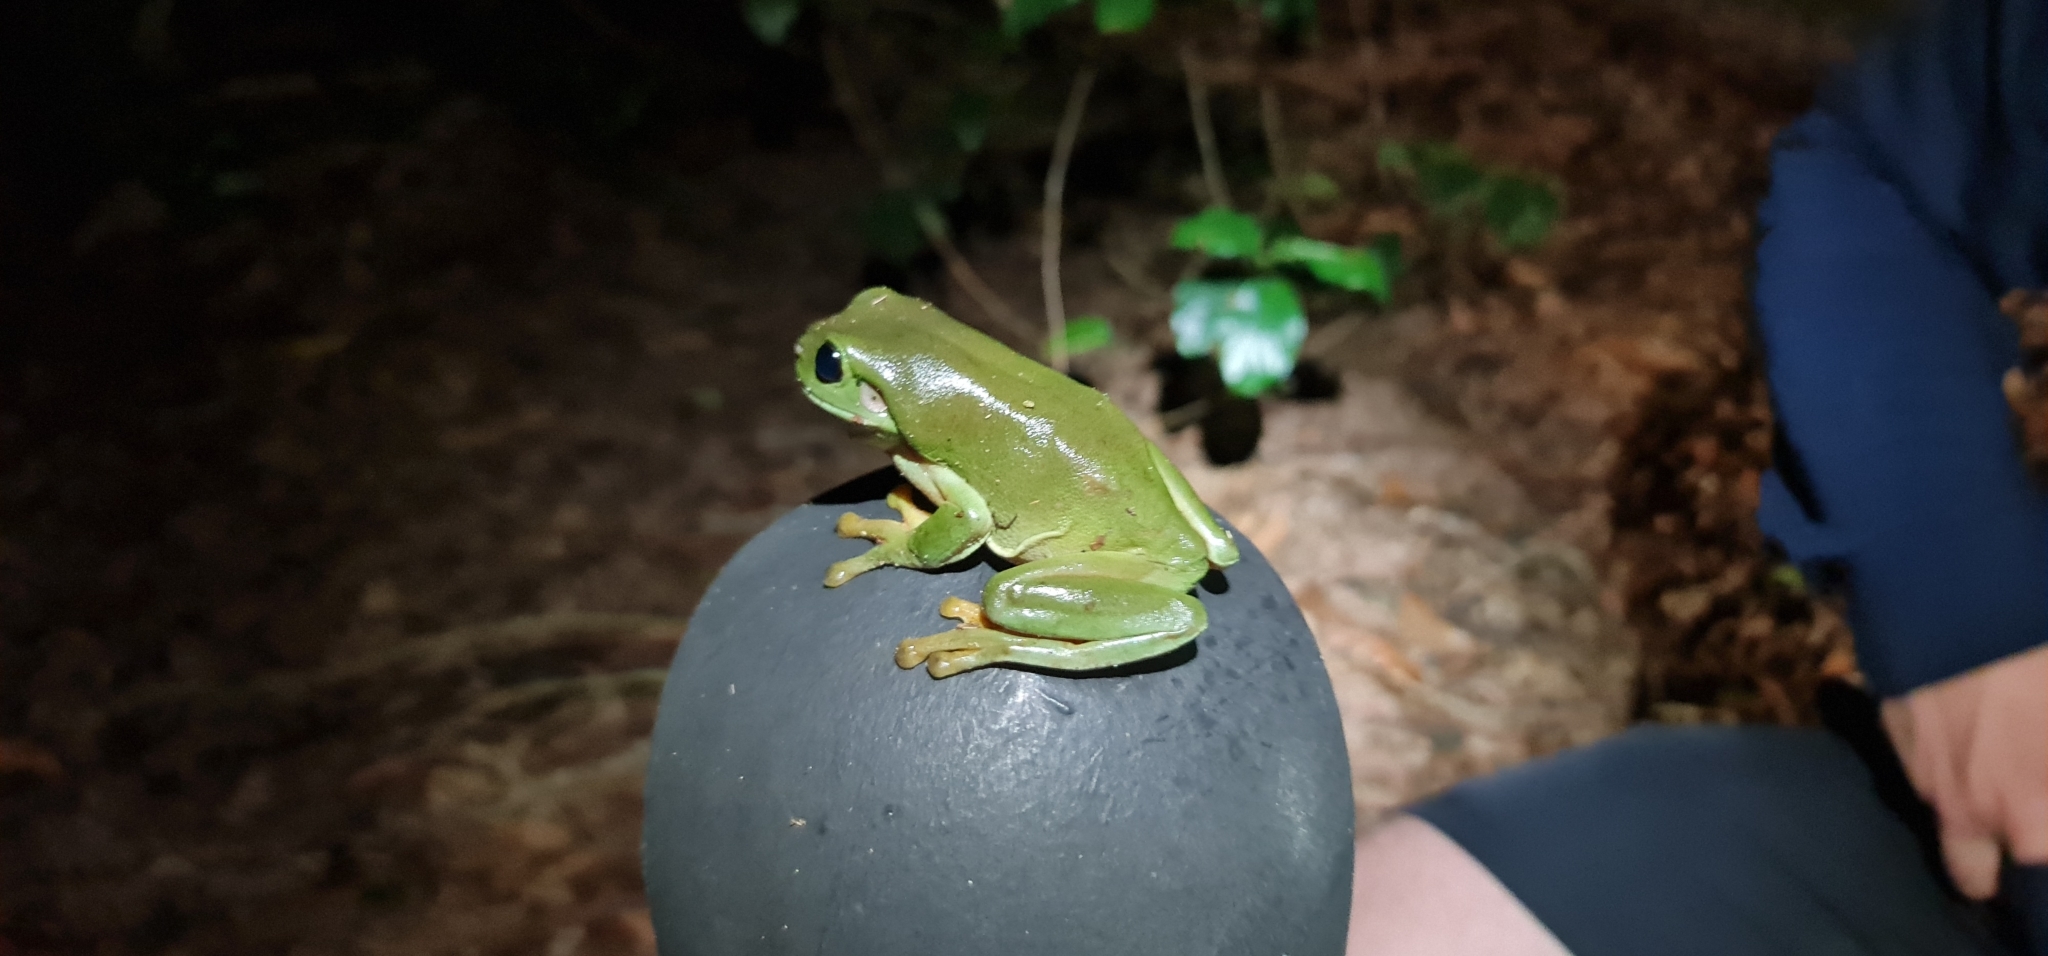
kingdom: Animalia
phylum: Chordata
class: Amphibia
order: Anura
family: Pelodryadidae
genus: Ranoidea
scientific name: Ranoidea caerulea
